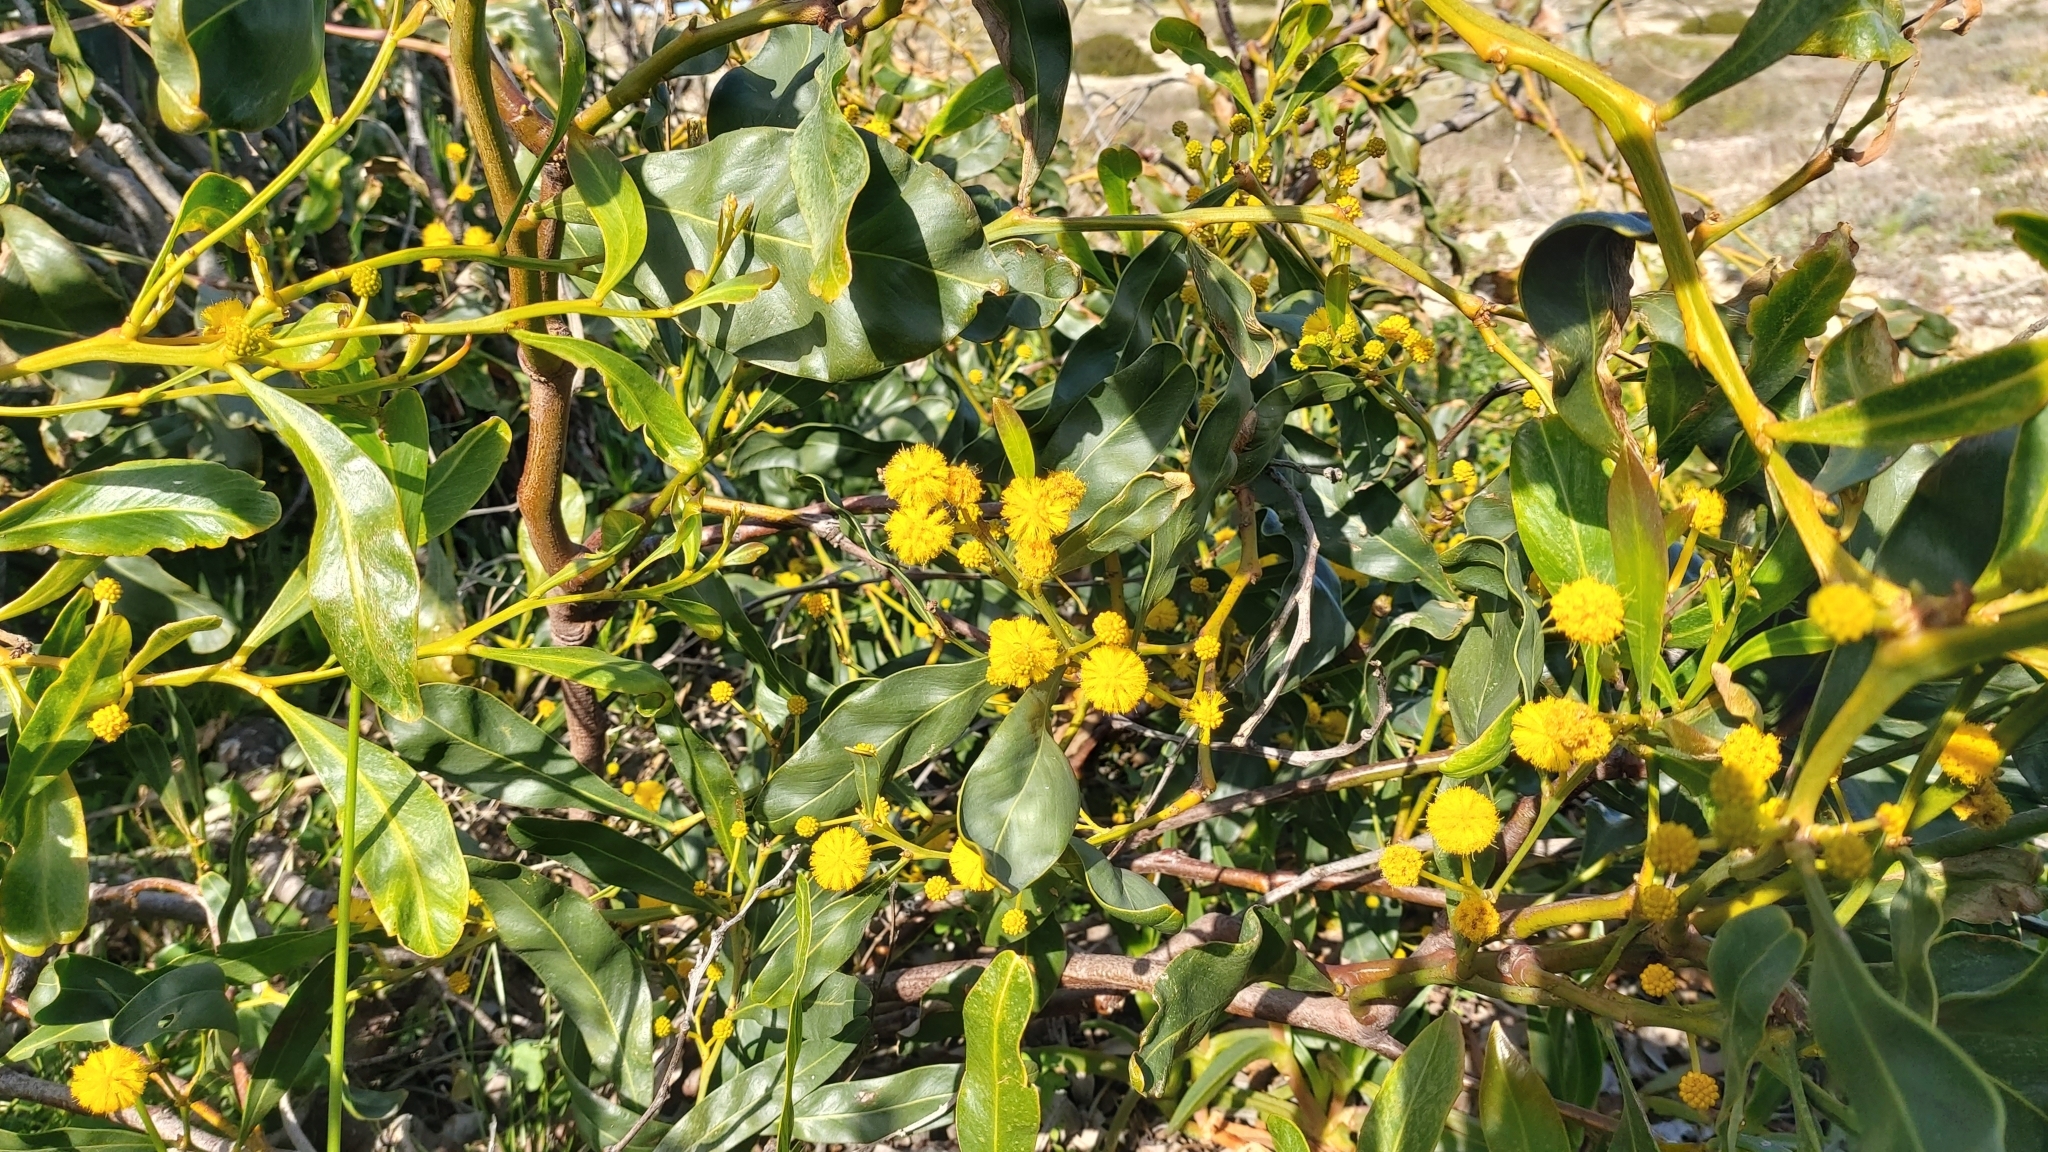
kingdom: Plantae
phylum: Tracheophyta
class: Magnoliopsida
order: Fabales
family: Fabaceae
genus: Acacia
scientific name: Acacia saligna
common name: Orange wattle
